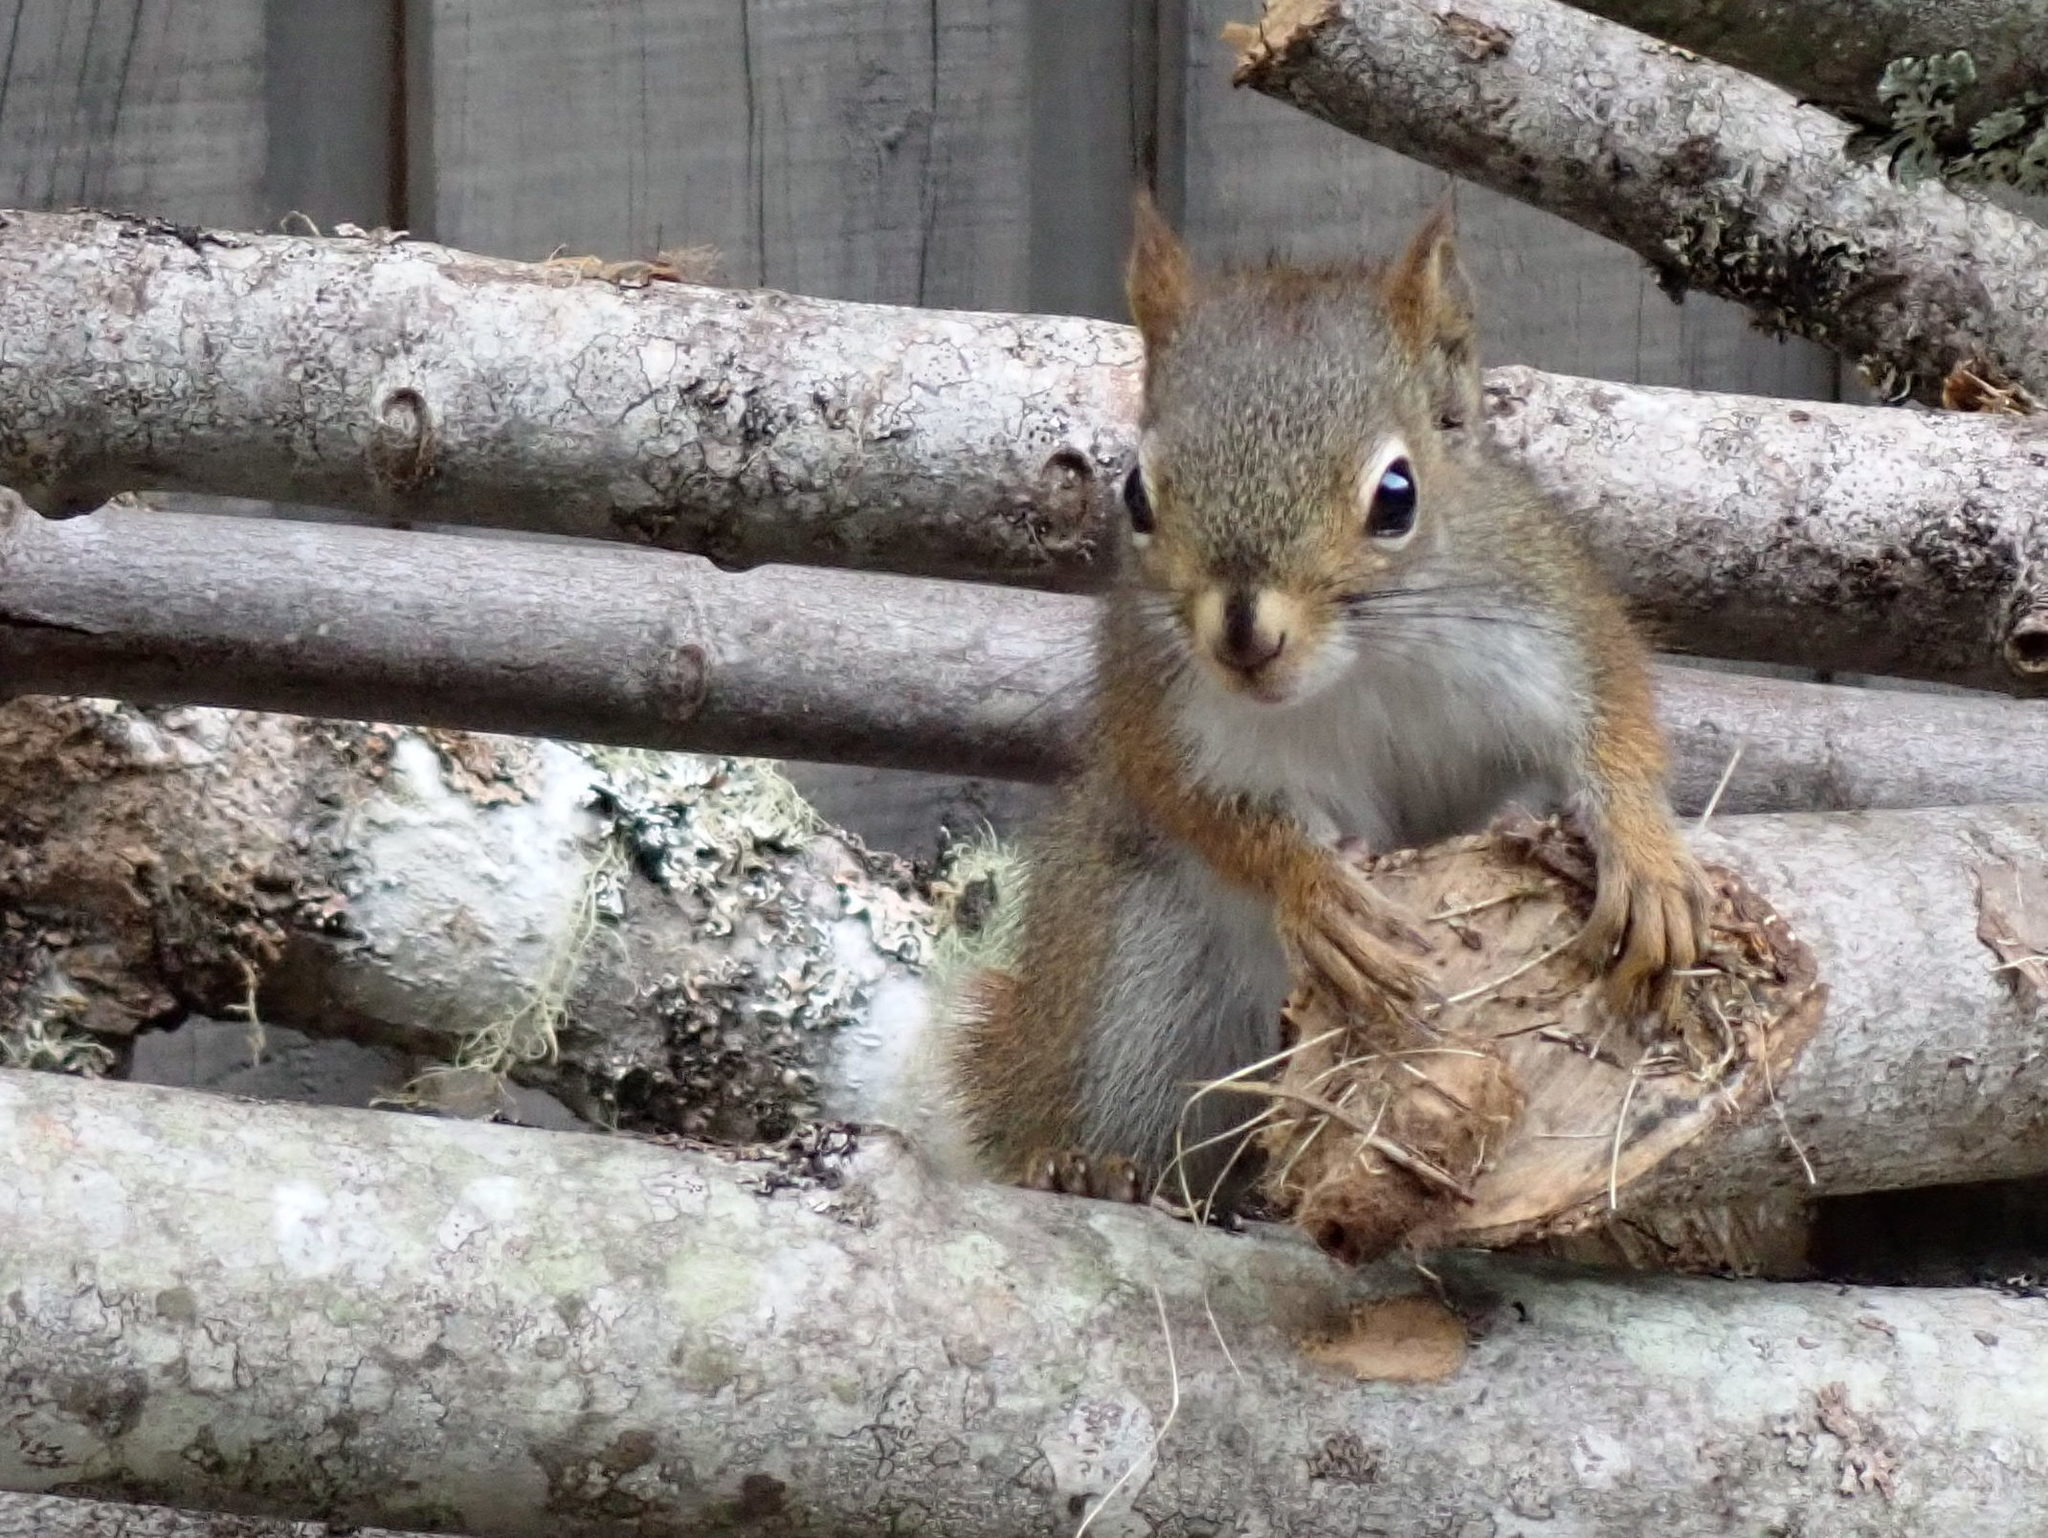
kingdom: Animalia
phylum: Chordata
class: Mammalia
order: Rodentia
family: Sciuridae
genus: Tamiasciurus
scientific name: Tamiasciurus hudsonicus
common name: Red squirrel
